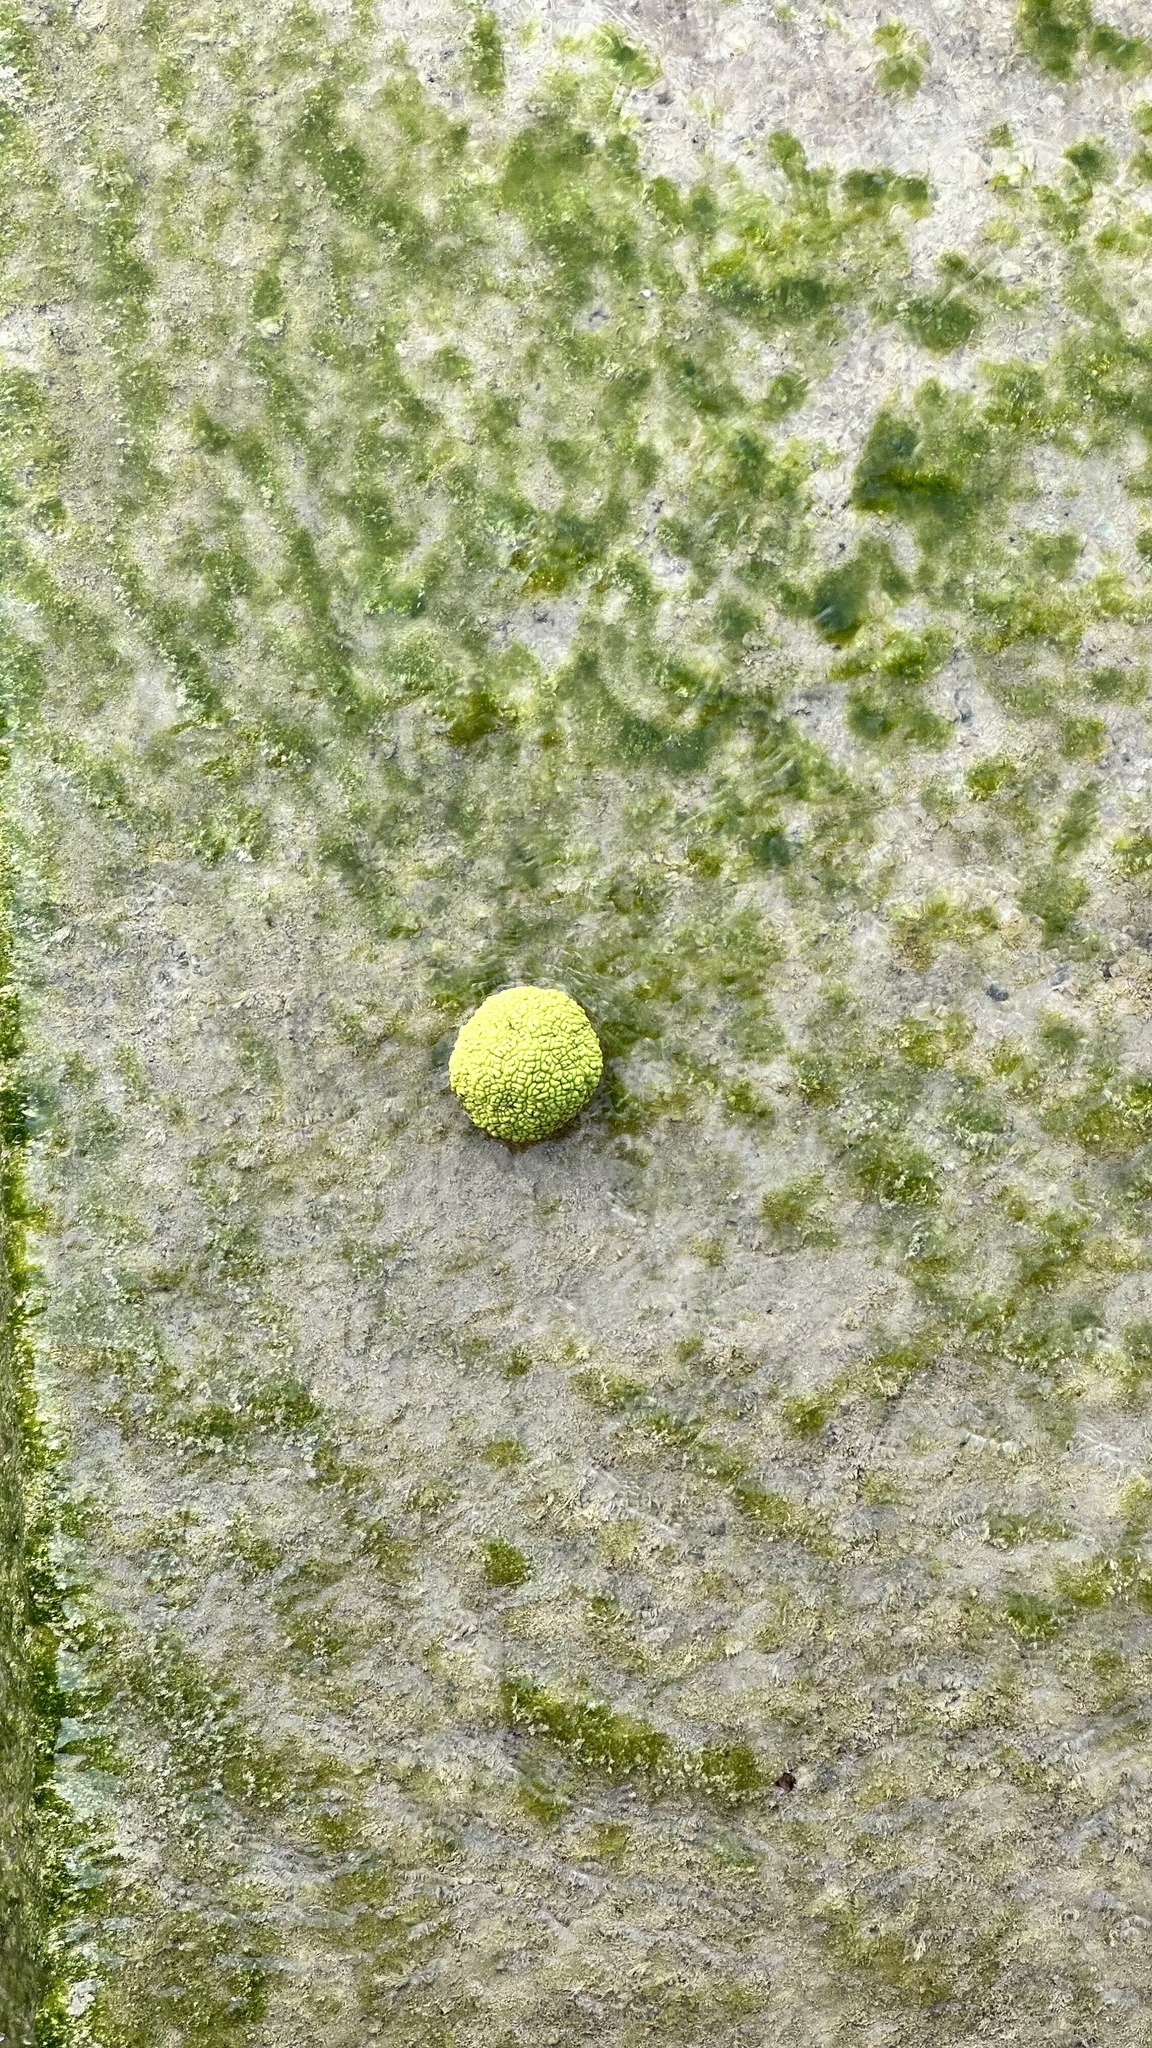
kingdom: Plantae
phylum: Tracheophyta
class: Magnoliopsida
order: Rosales
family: Moraceae
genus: Maclura
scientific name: Maclura pomifera
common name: Osage-orange
